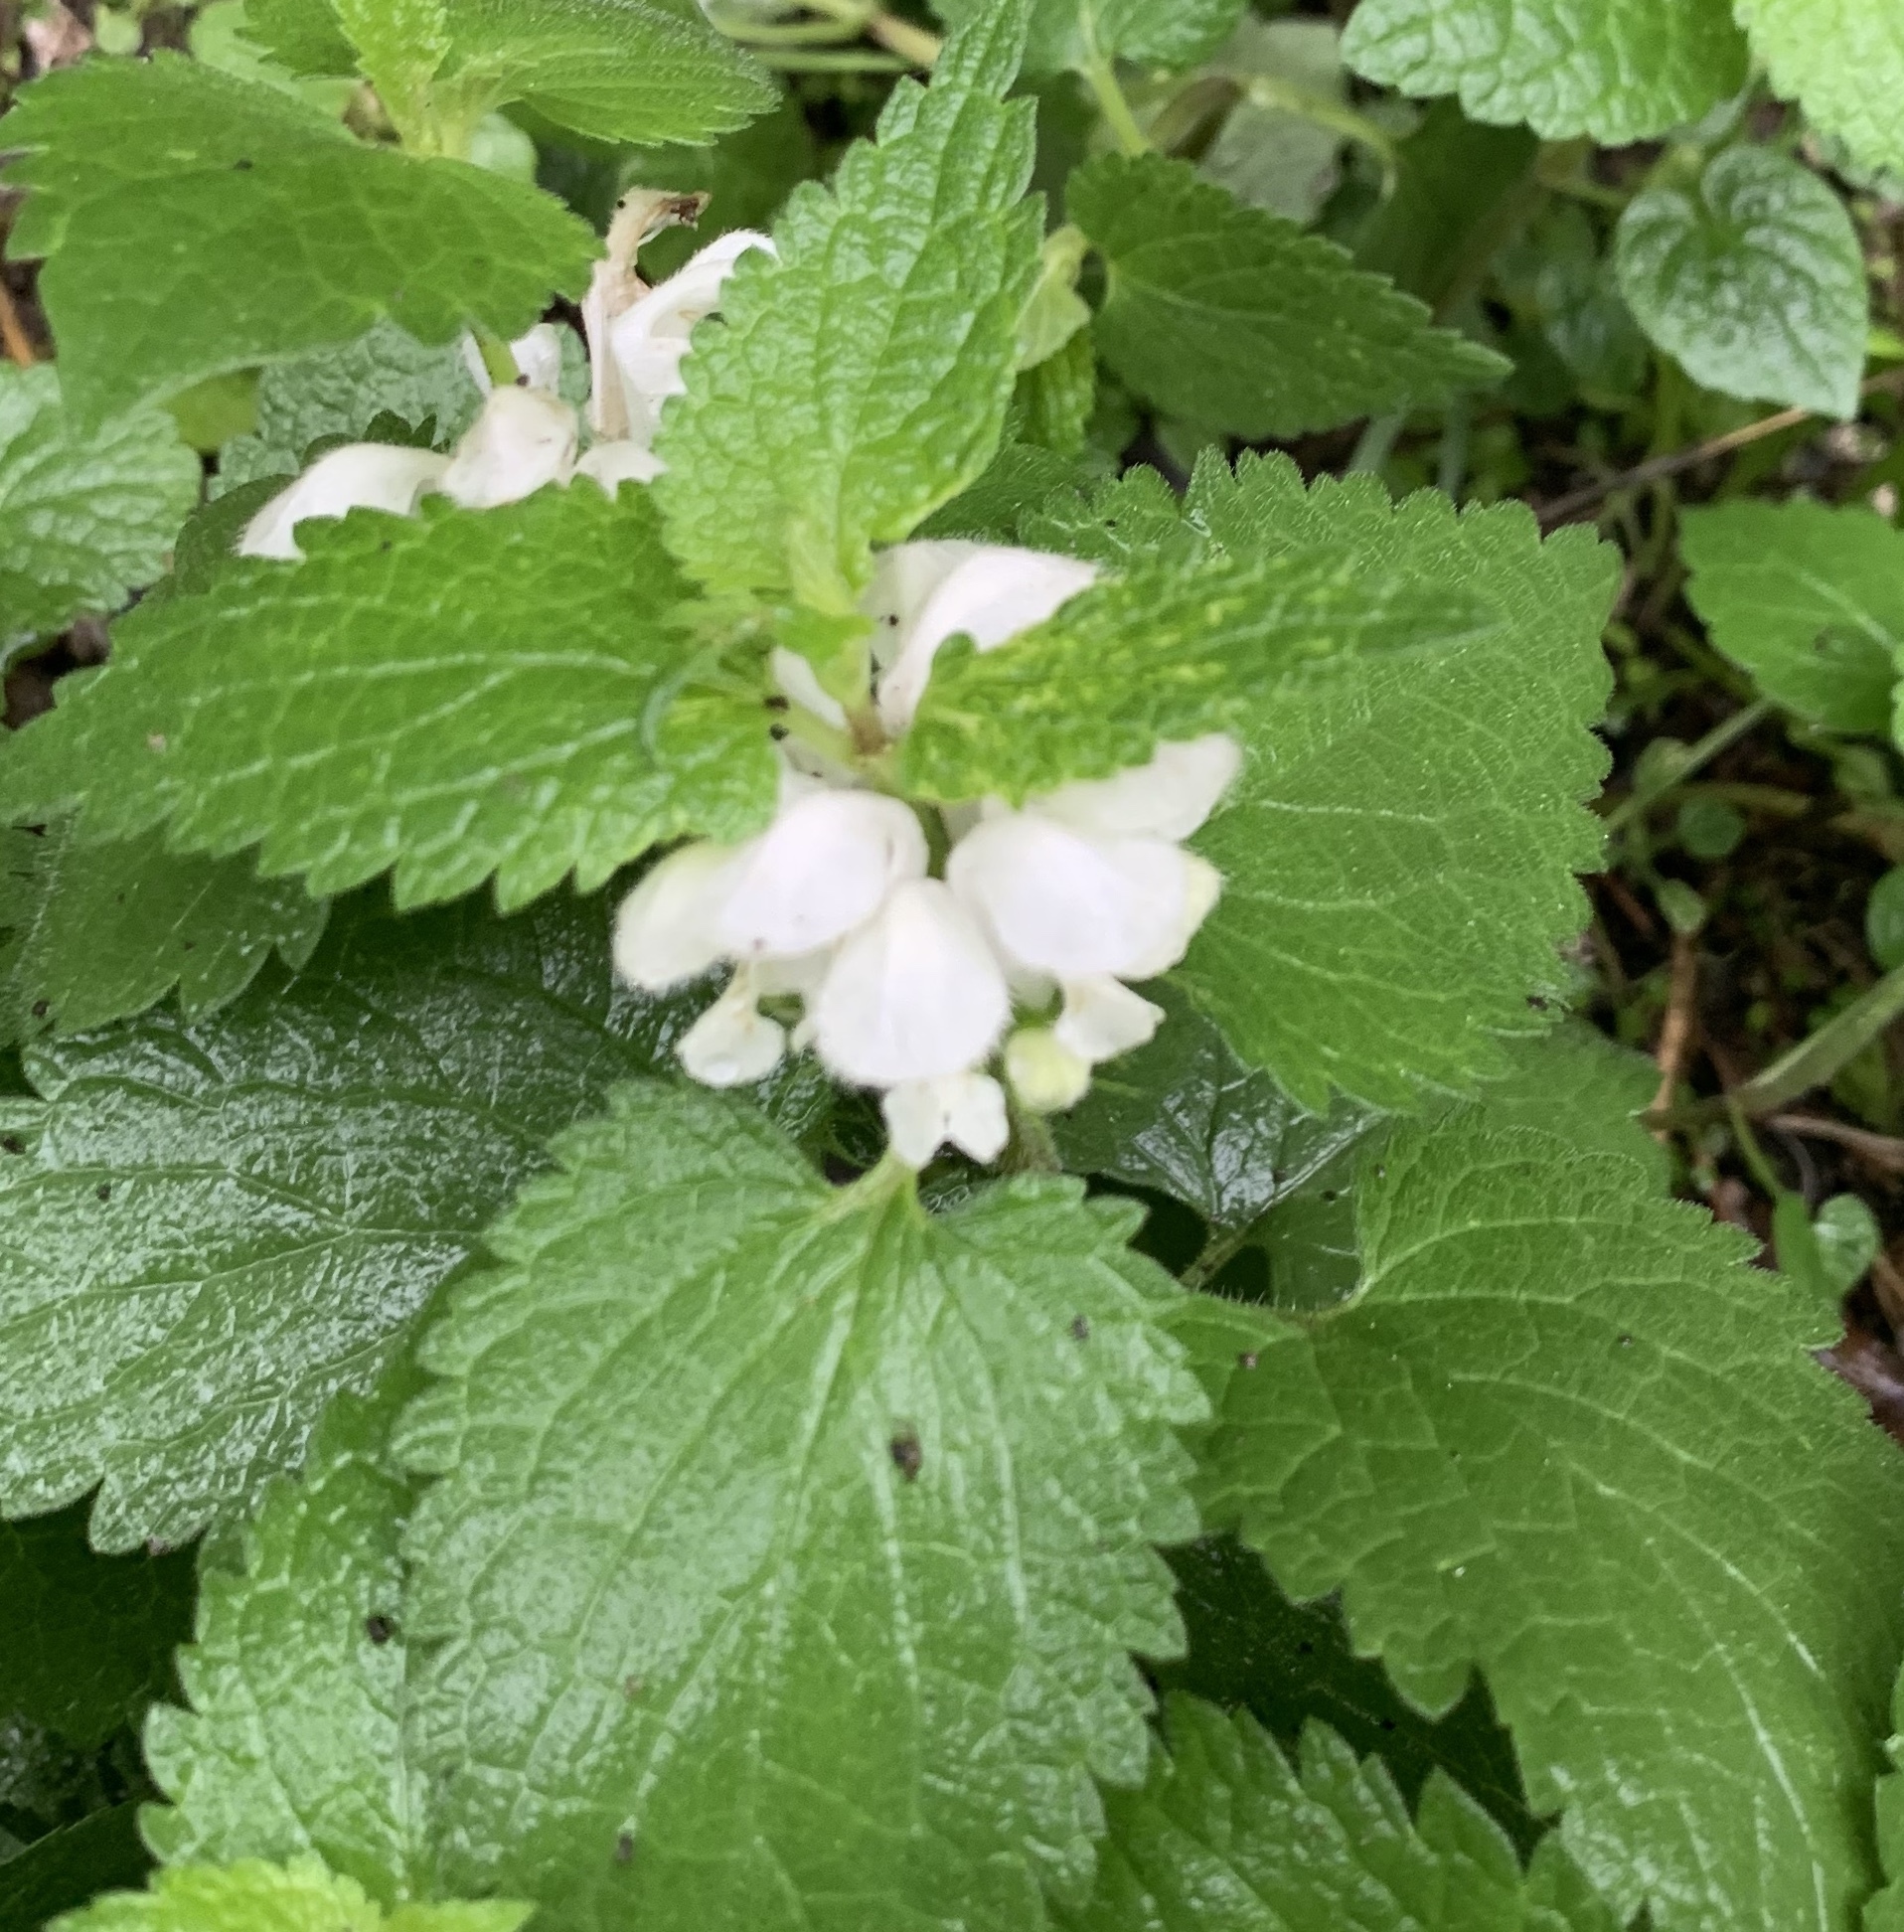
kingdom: Plantae
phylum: Tracheophyta
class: Magnoliopsida
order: Lamiales
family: Lamiaceae
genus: Lamium
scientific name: Lamium album
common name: White dead-nettle
